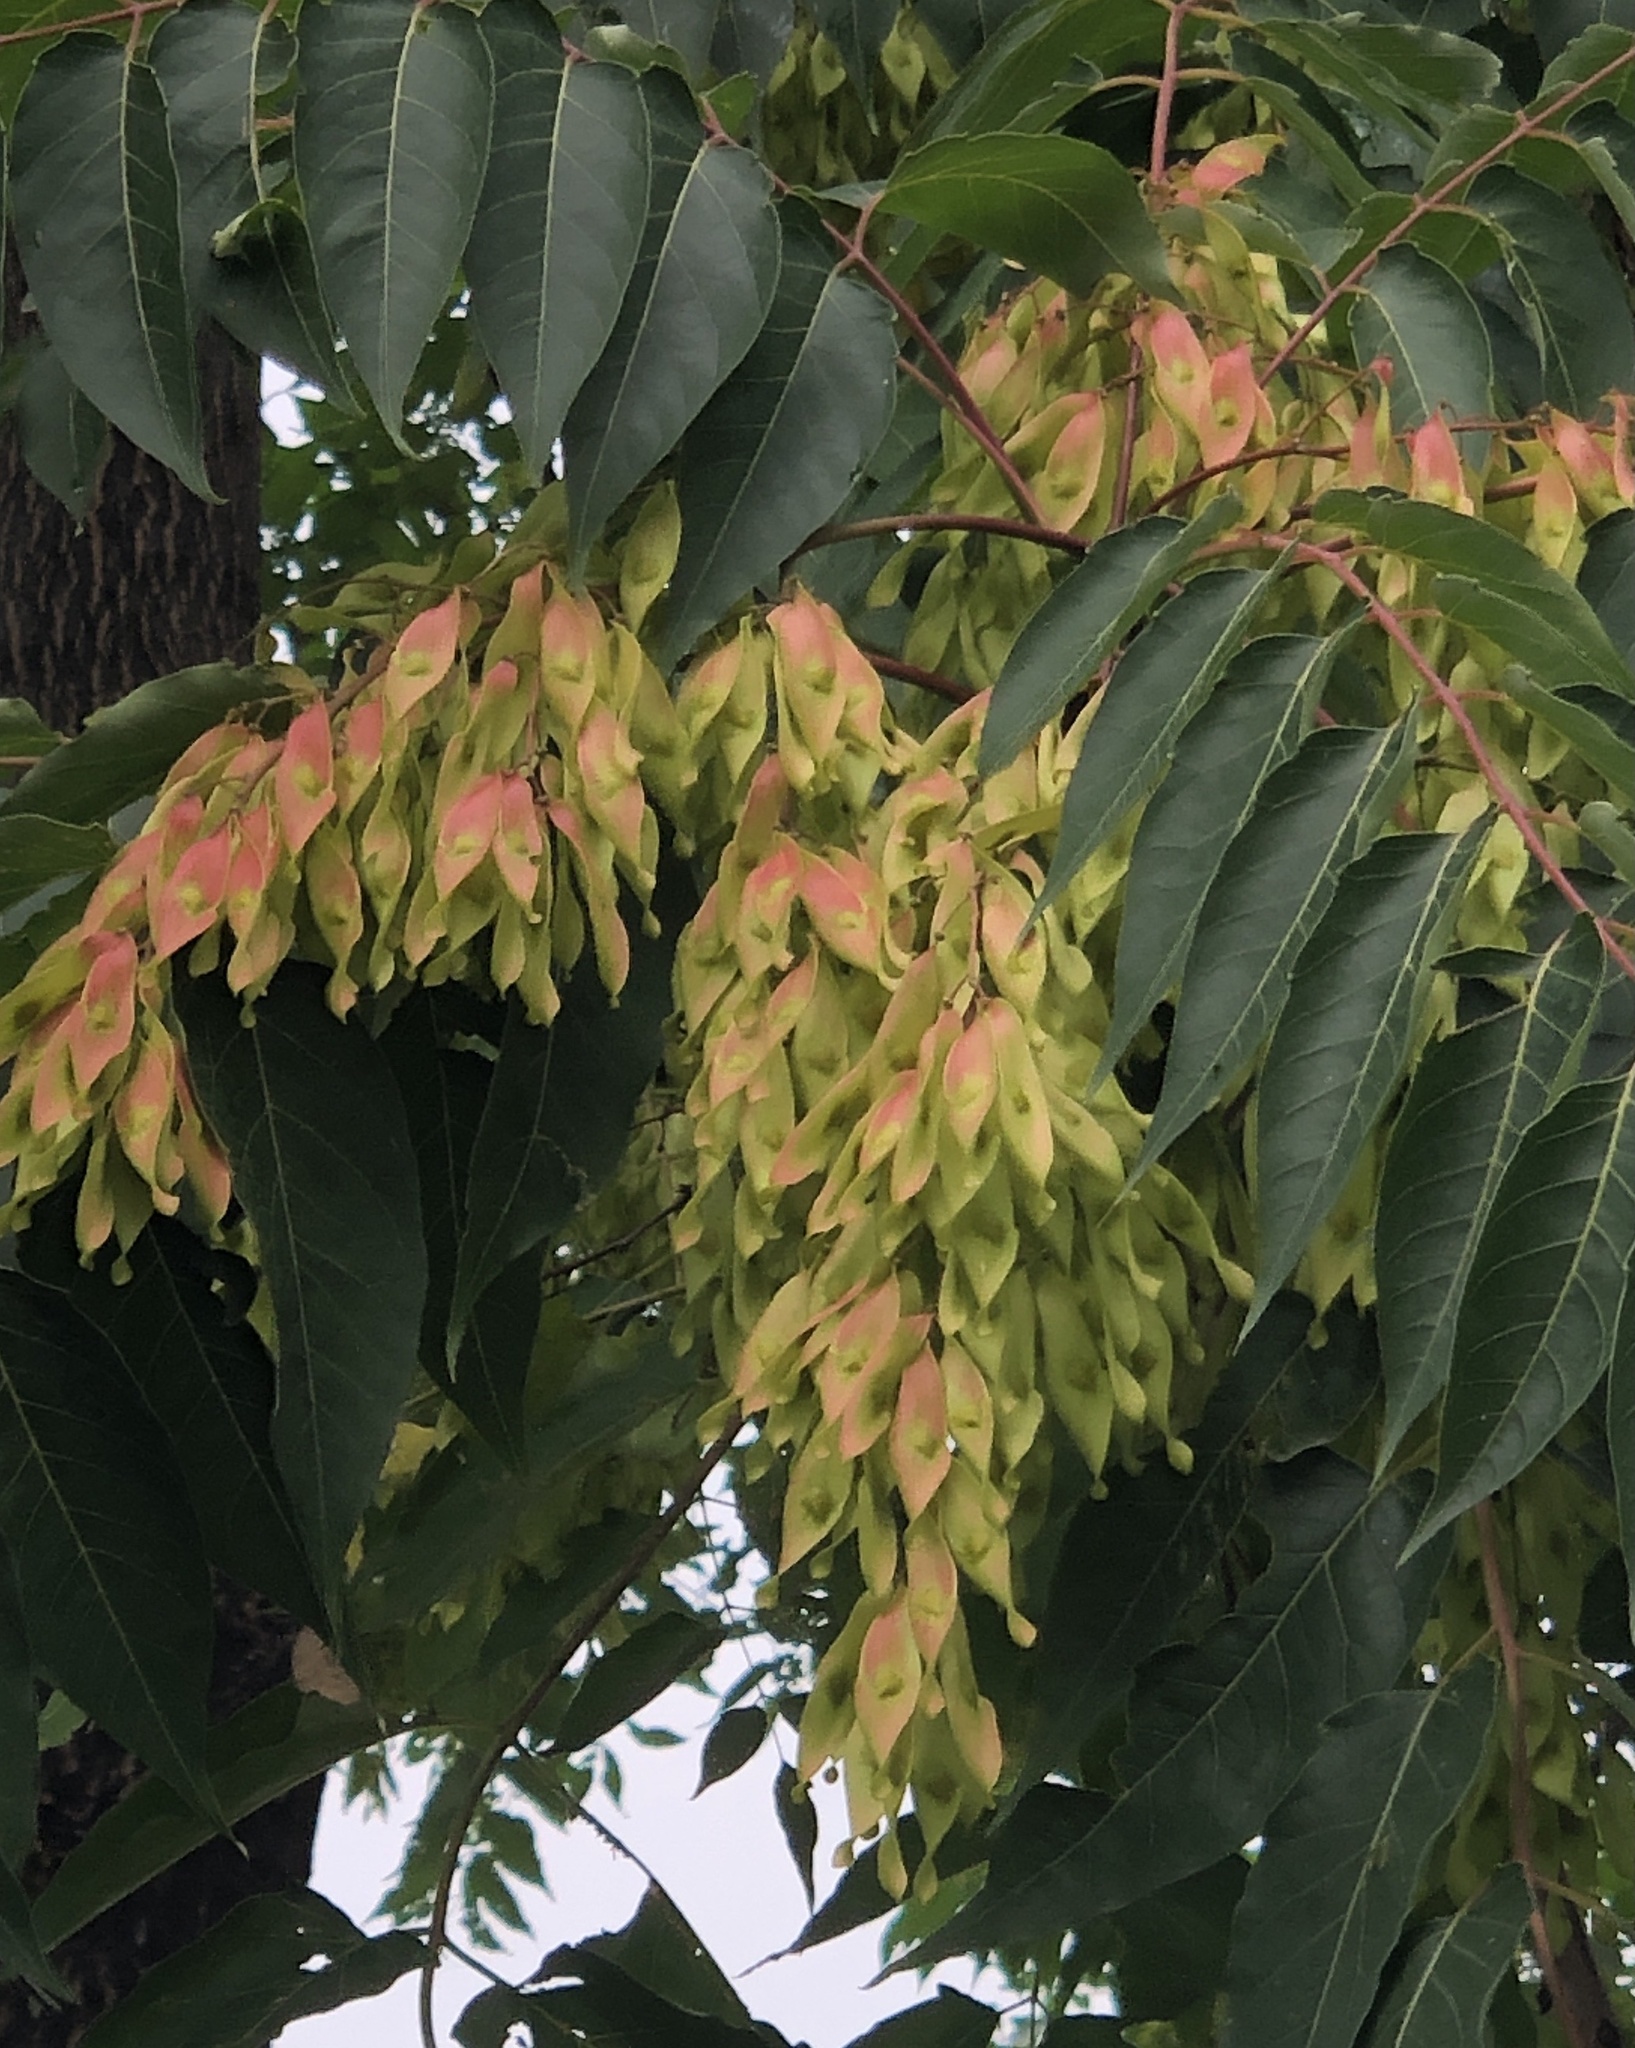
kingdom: Plantae
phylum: Tracheophyta
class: Magnoliopsida
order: Sapindales
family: Simaroubaceae
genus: Ailanthus
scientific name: Ailanthus altissima
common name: Tree-of-heaven
